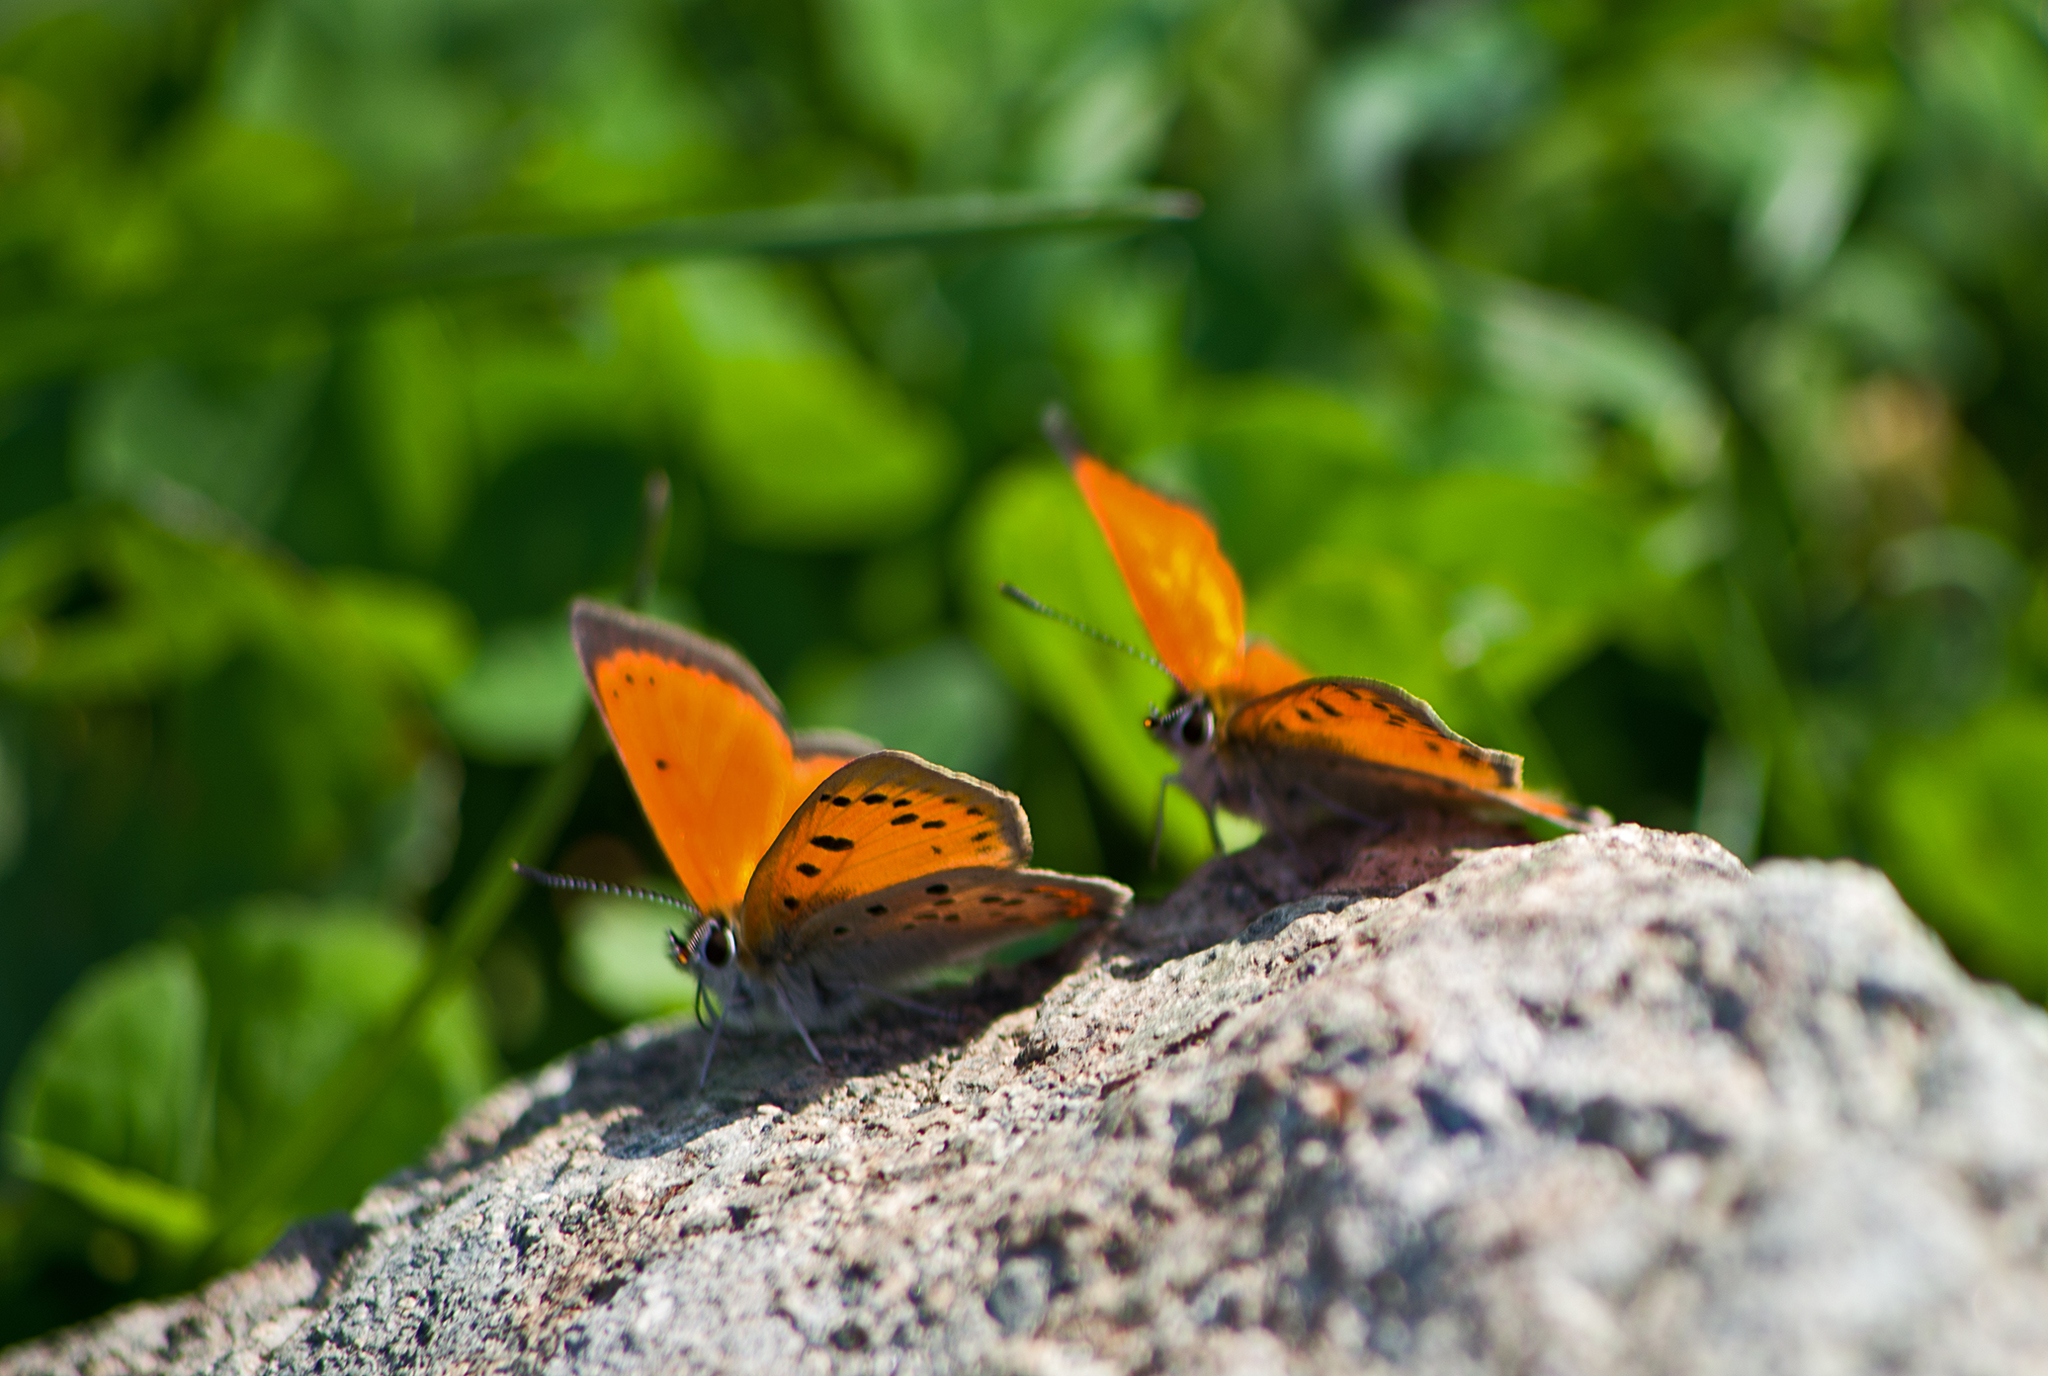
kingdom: Animalia
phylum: Arthropoda
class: Insecta
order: Lepidoptera
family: Lycaenidae
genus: Polyommatus
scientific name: Polyommatus ottomanus
